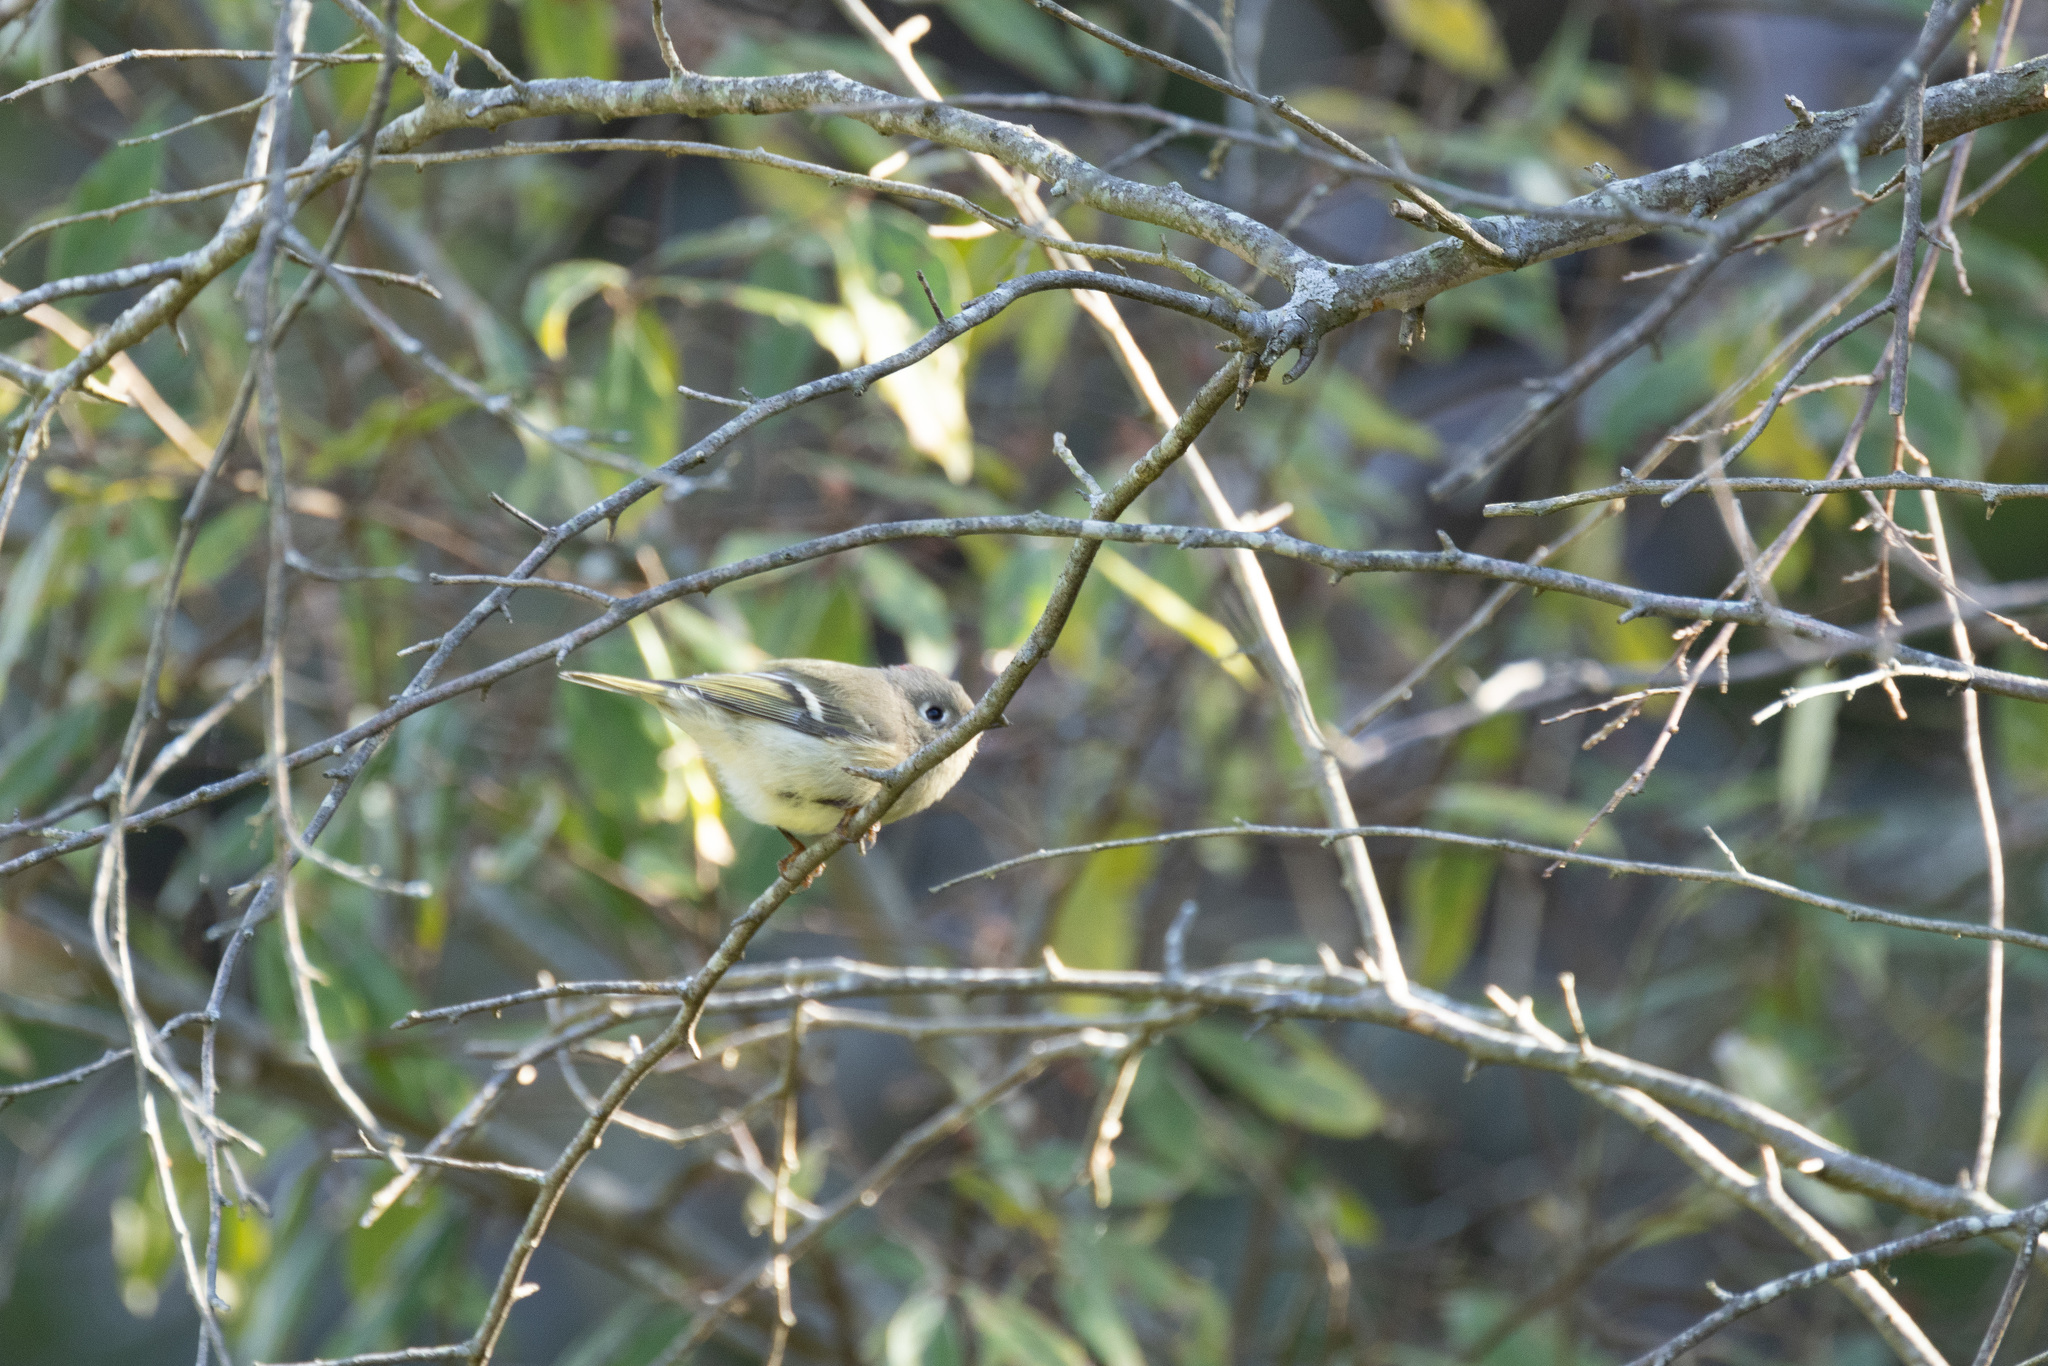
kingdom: Animalia
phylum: Chordata
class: Aves
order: Passeriformes
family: Regulidae
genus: Regulus
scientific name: Regulus calendula
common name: Ruby-crowned kinglet
